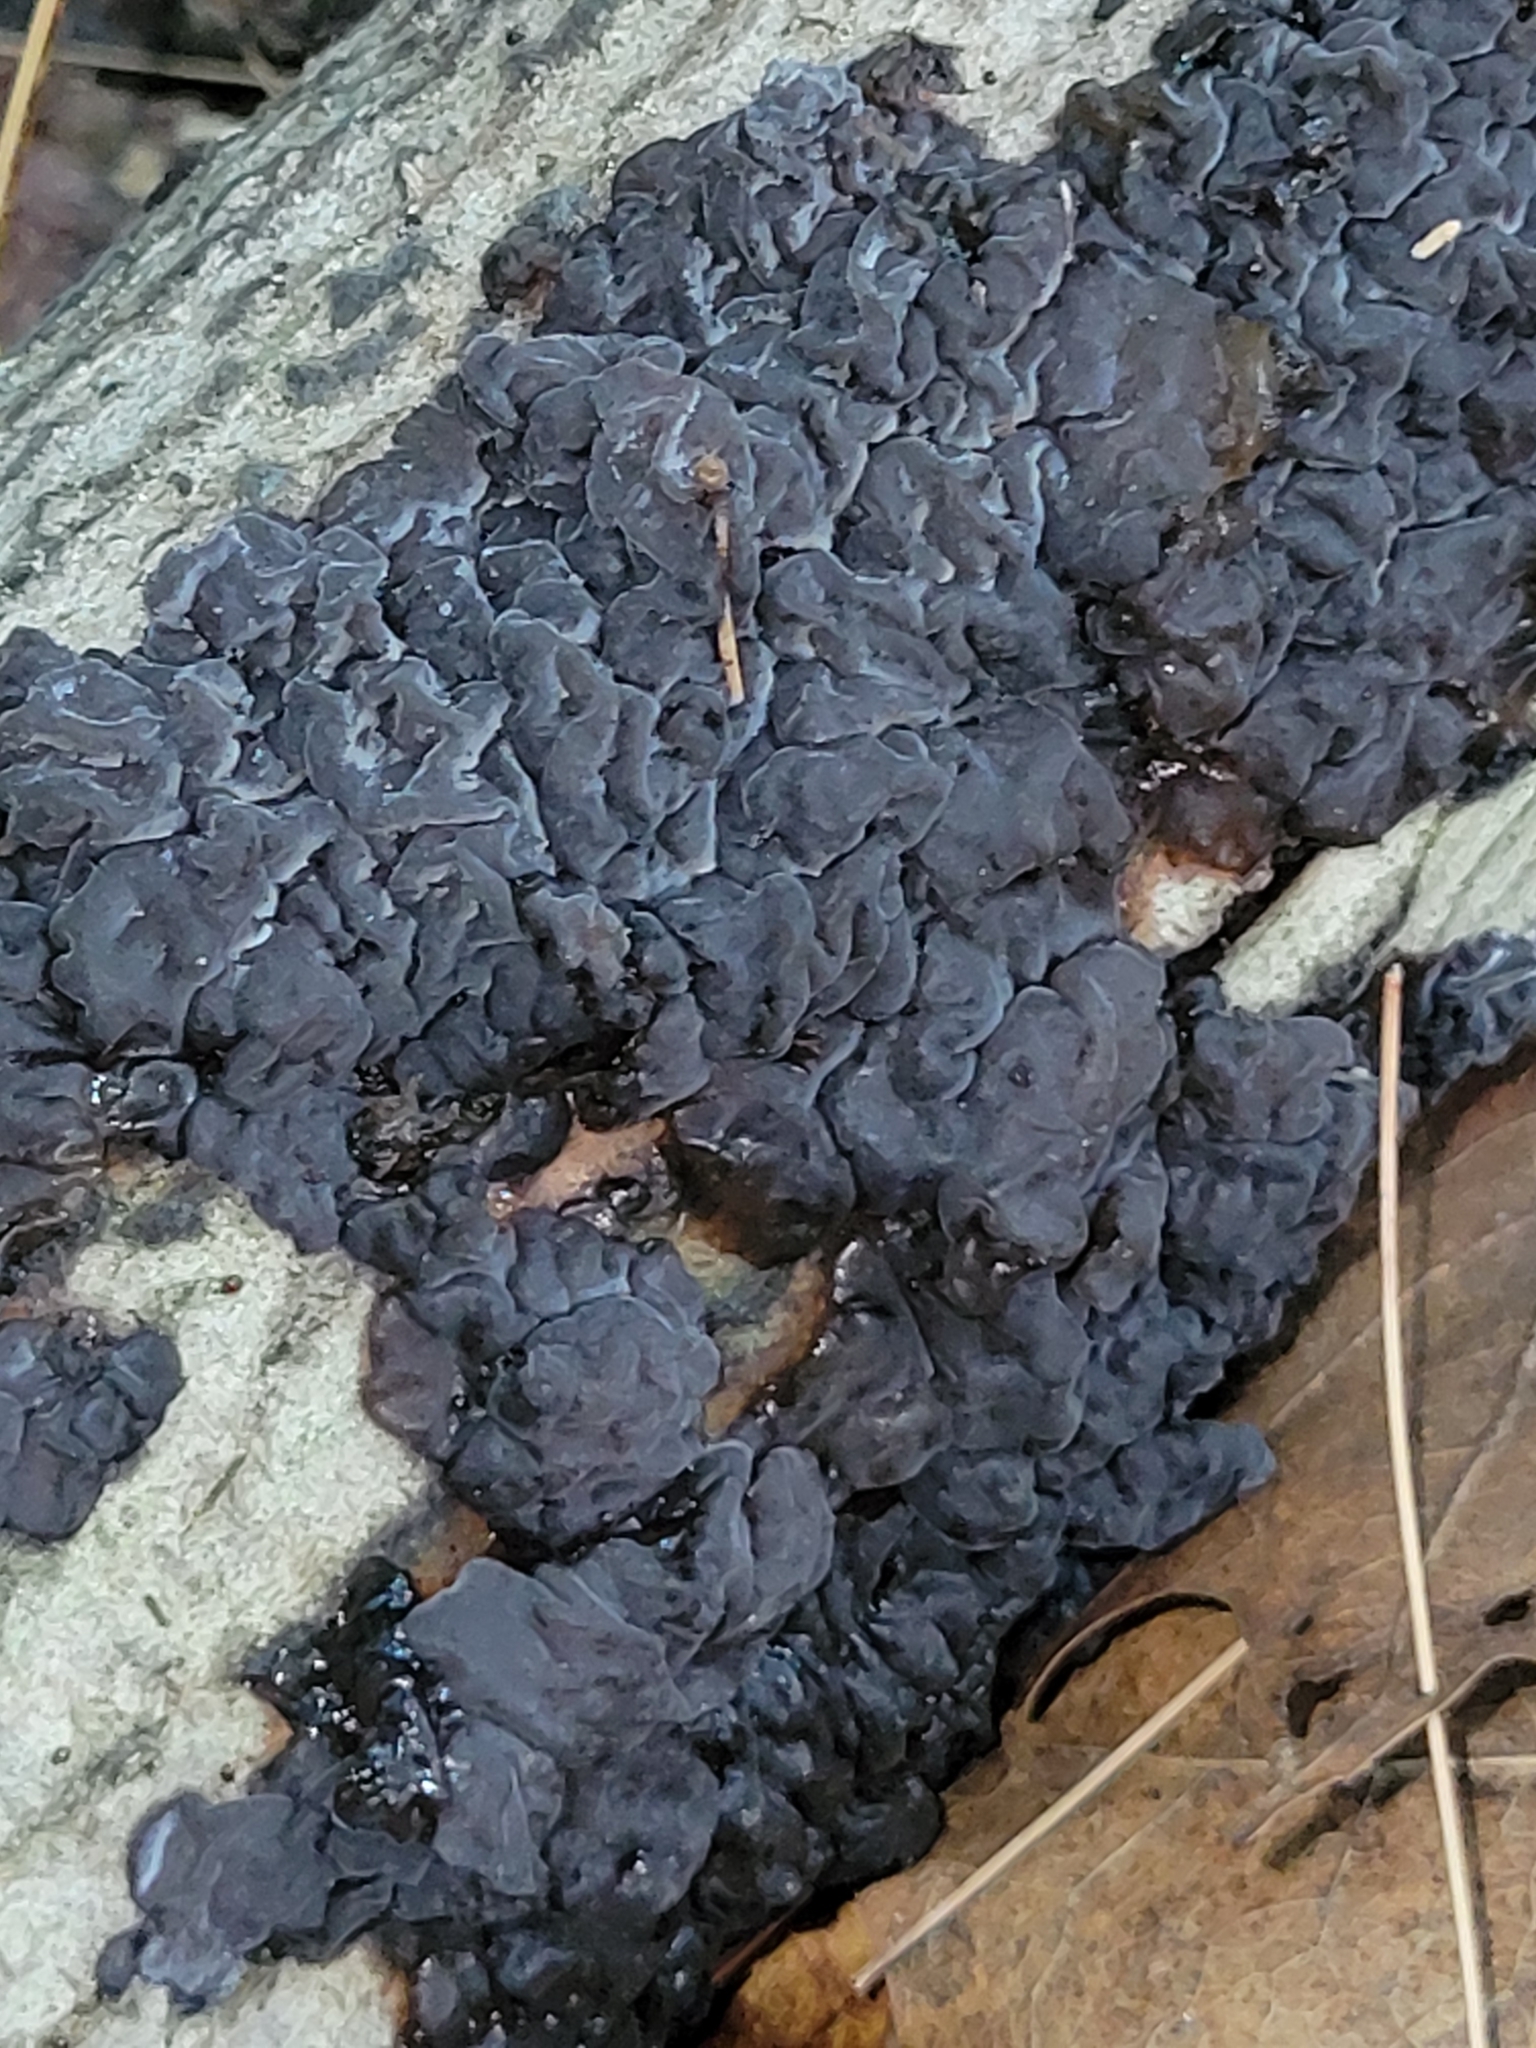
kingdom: Fungi
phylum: Basidiomycota
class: Agaricomycetes
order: Auriculariales
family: Auriculariaceae
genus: Exidia
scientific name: Exidia glandulosa
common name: Witches' butter
